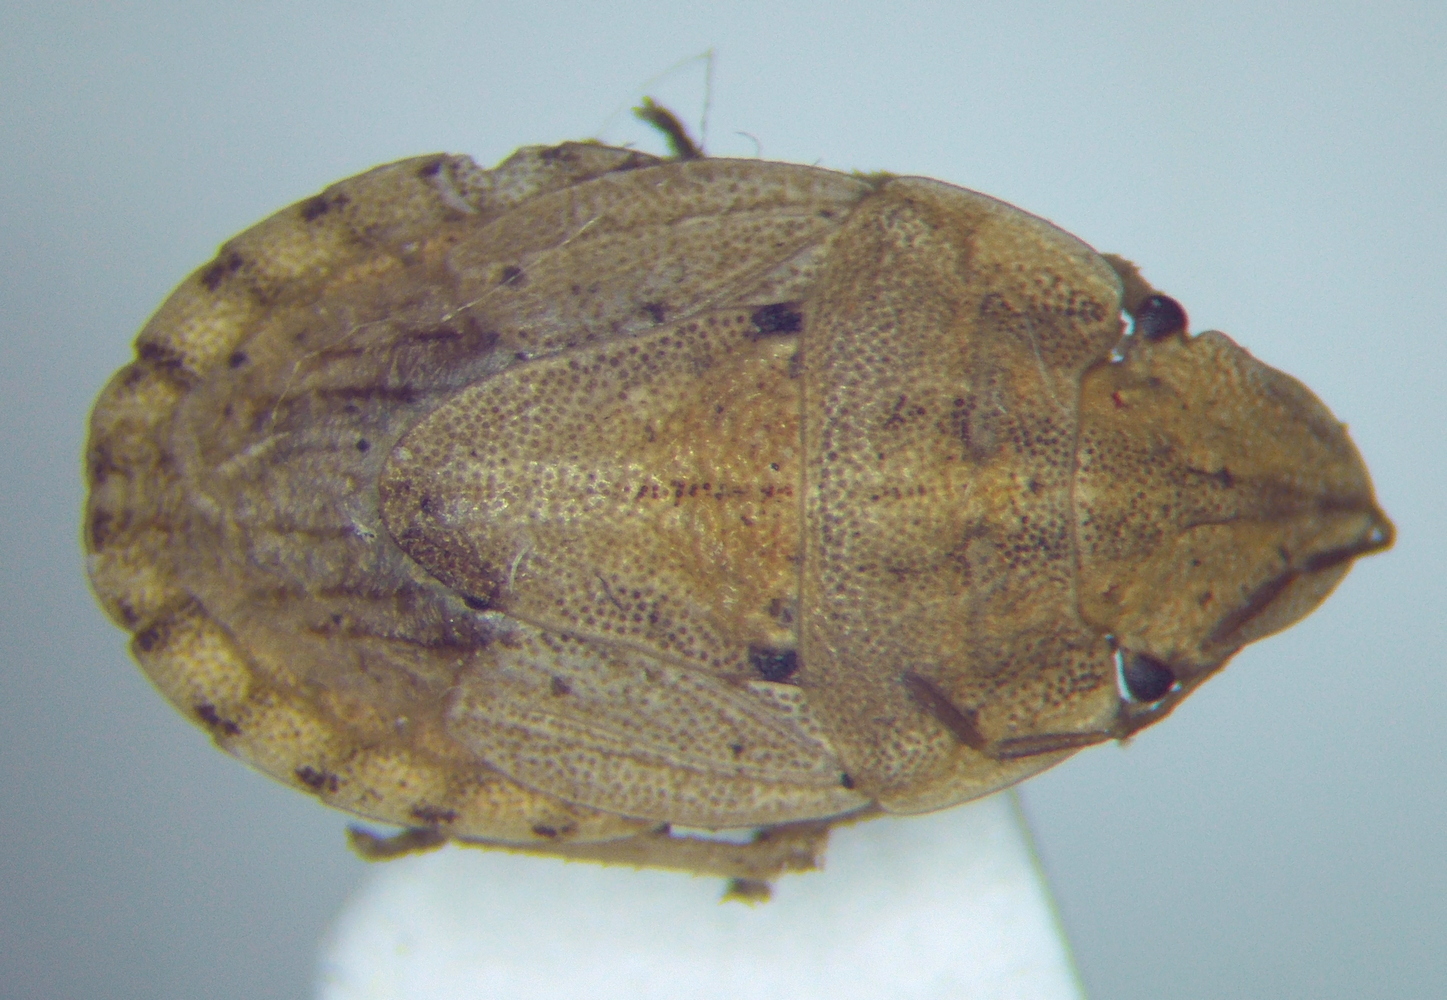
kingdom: Animalia
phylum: Arthropoda
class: Insecta
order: Hemiptera
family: Pentatomidae
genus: Sciocoris
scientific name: Sciocoris sulcatus
